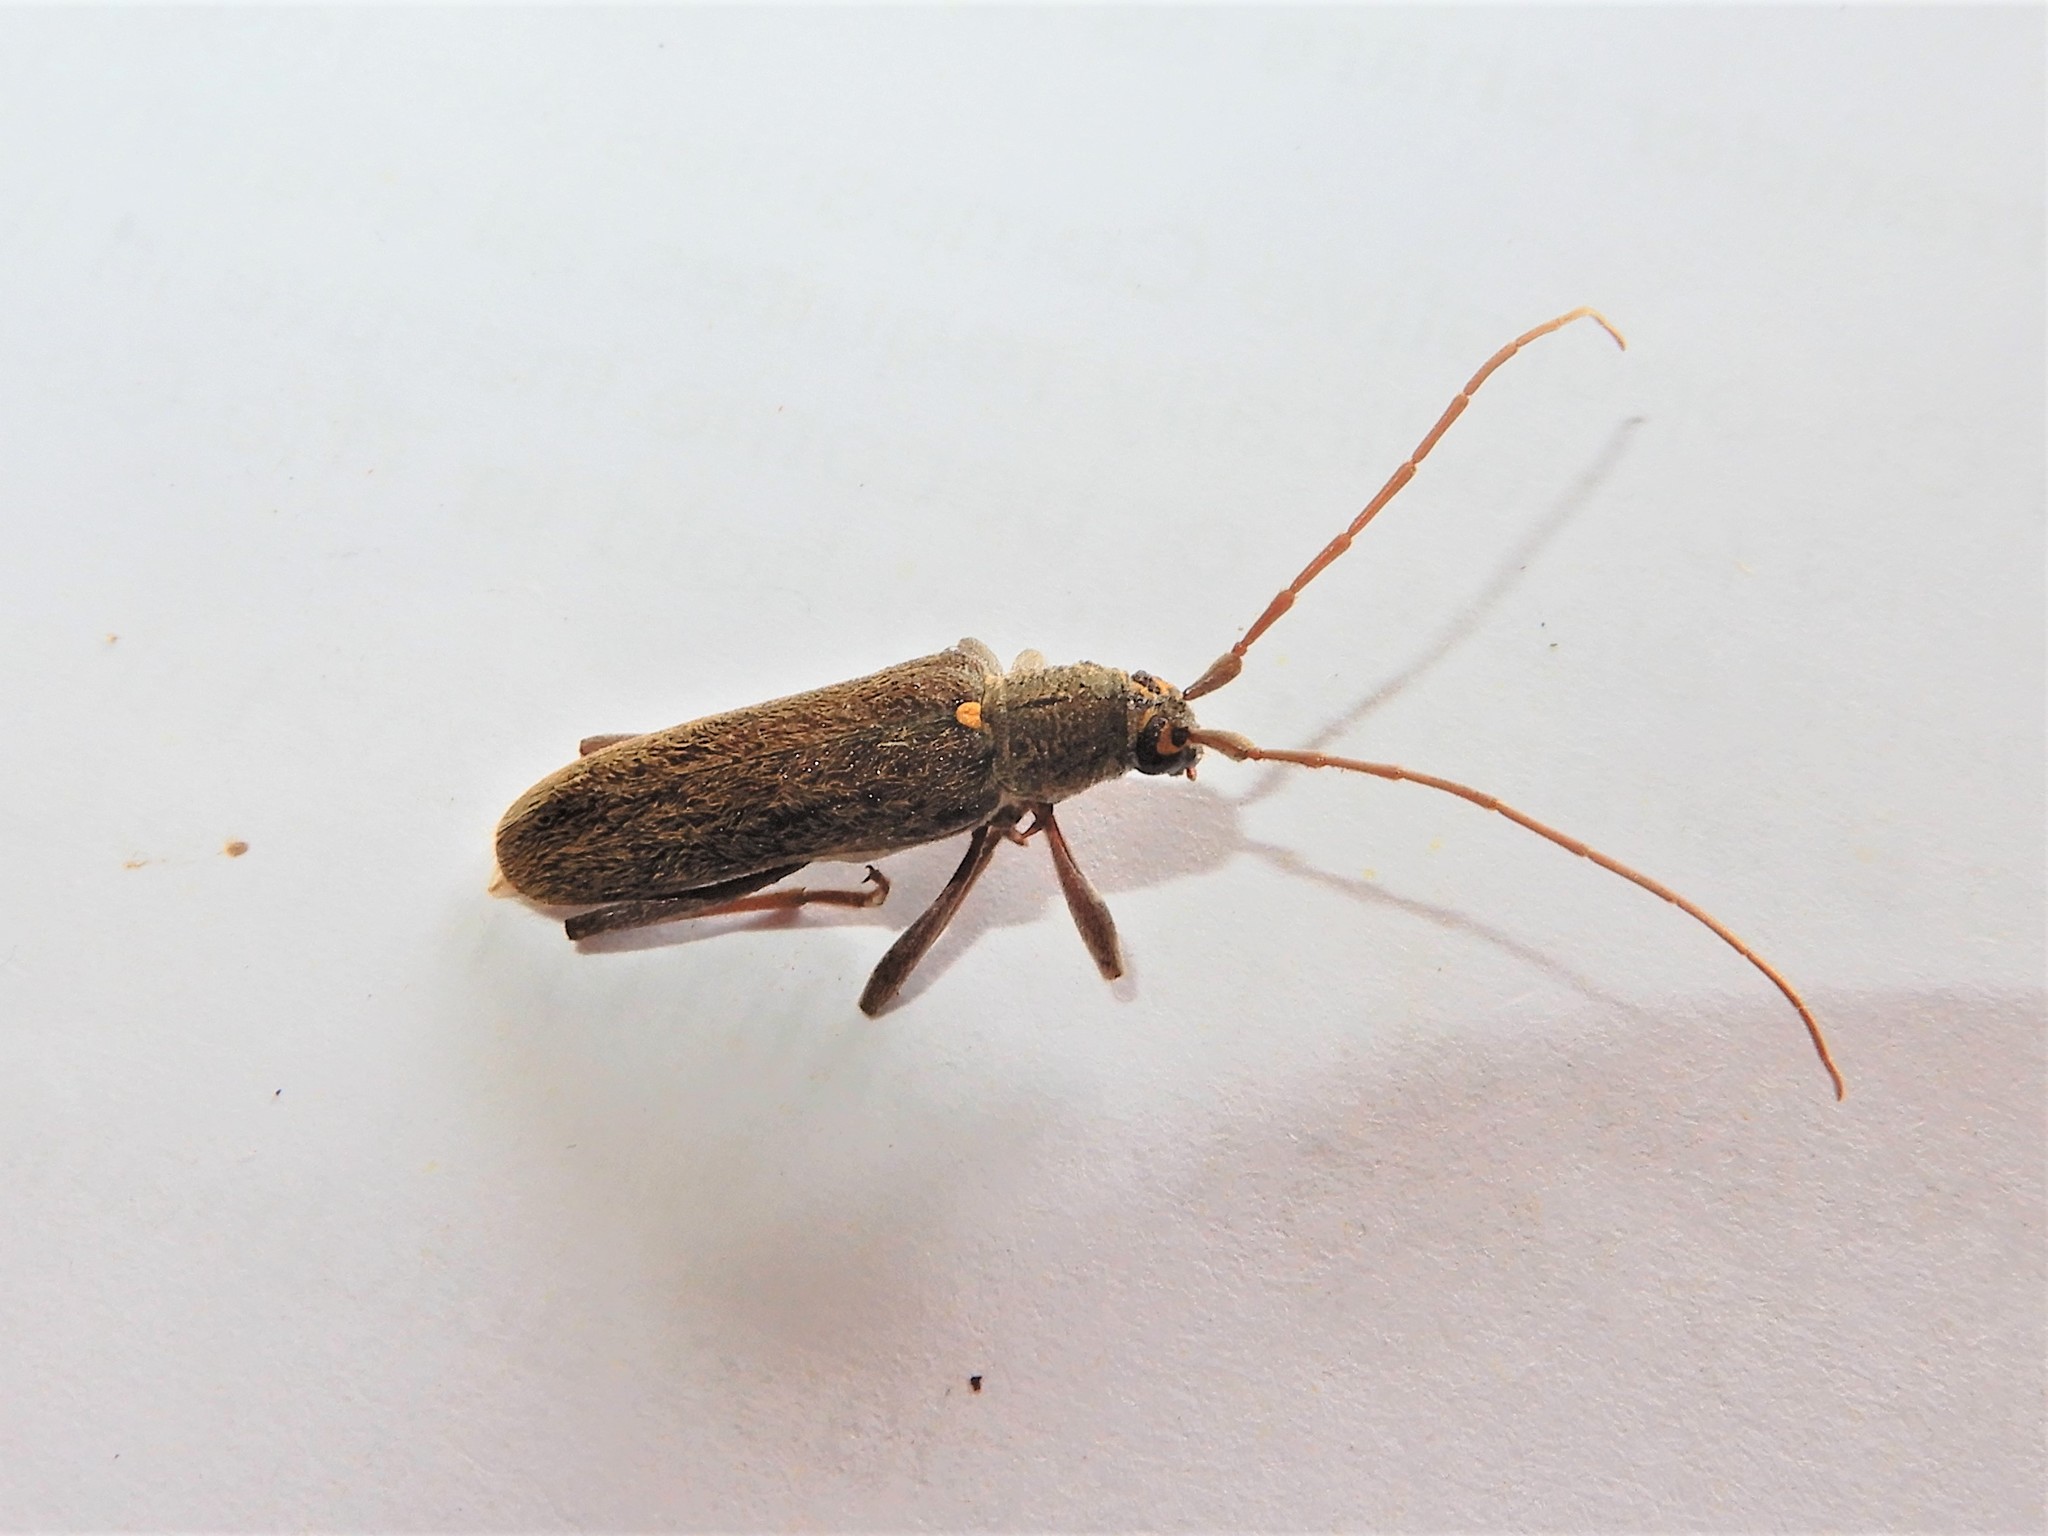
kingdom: Animalia
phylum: Arthropoda
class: Insecta
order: Coleoptera
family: Cerambycidae
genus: Oemona
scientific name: Oemona hirta
